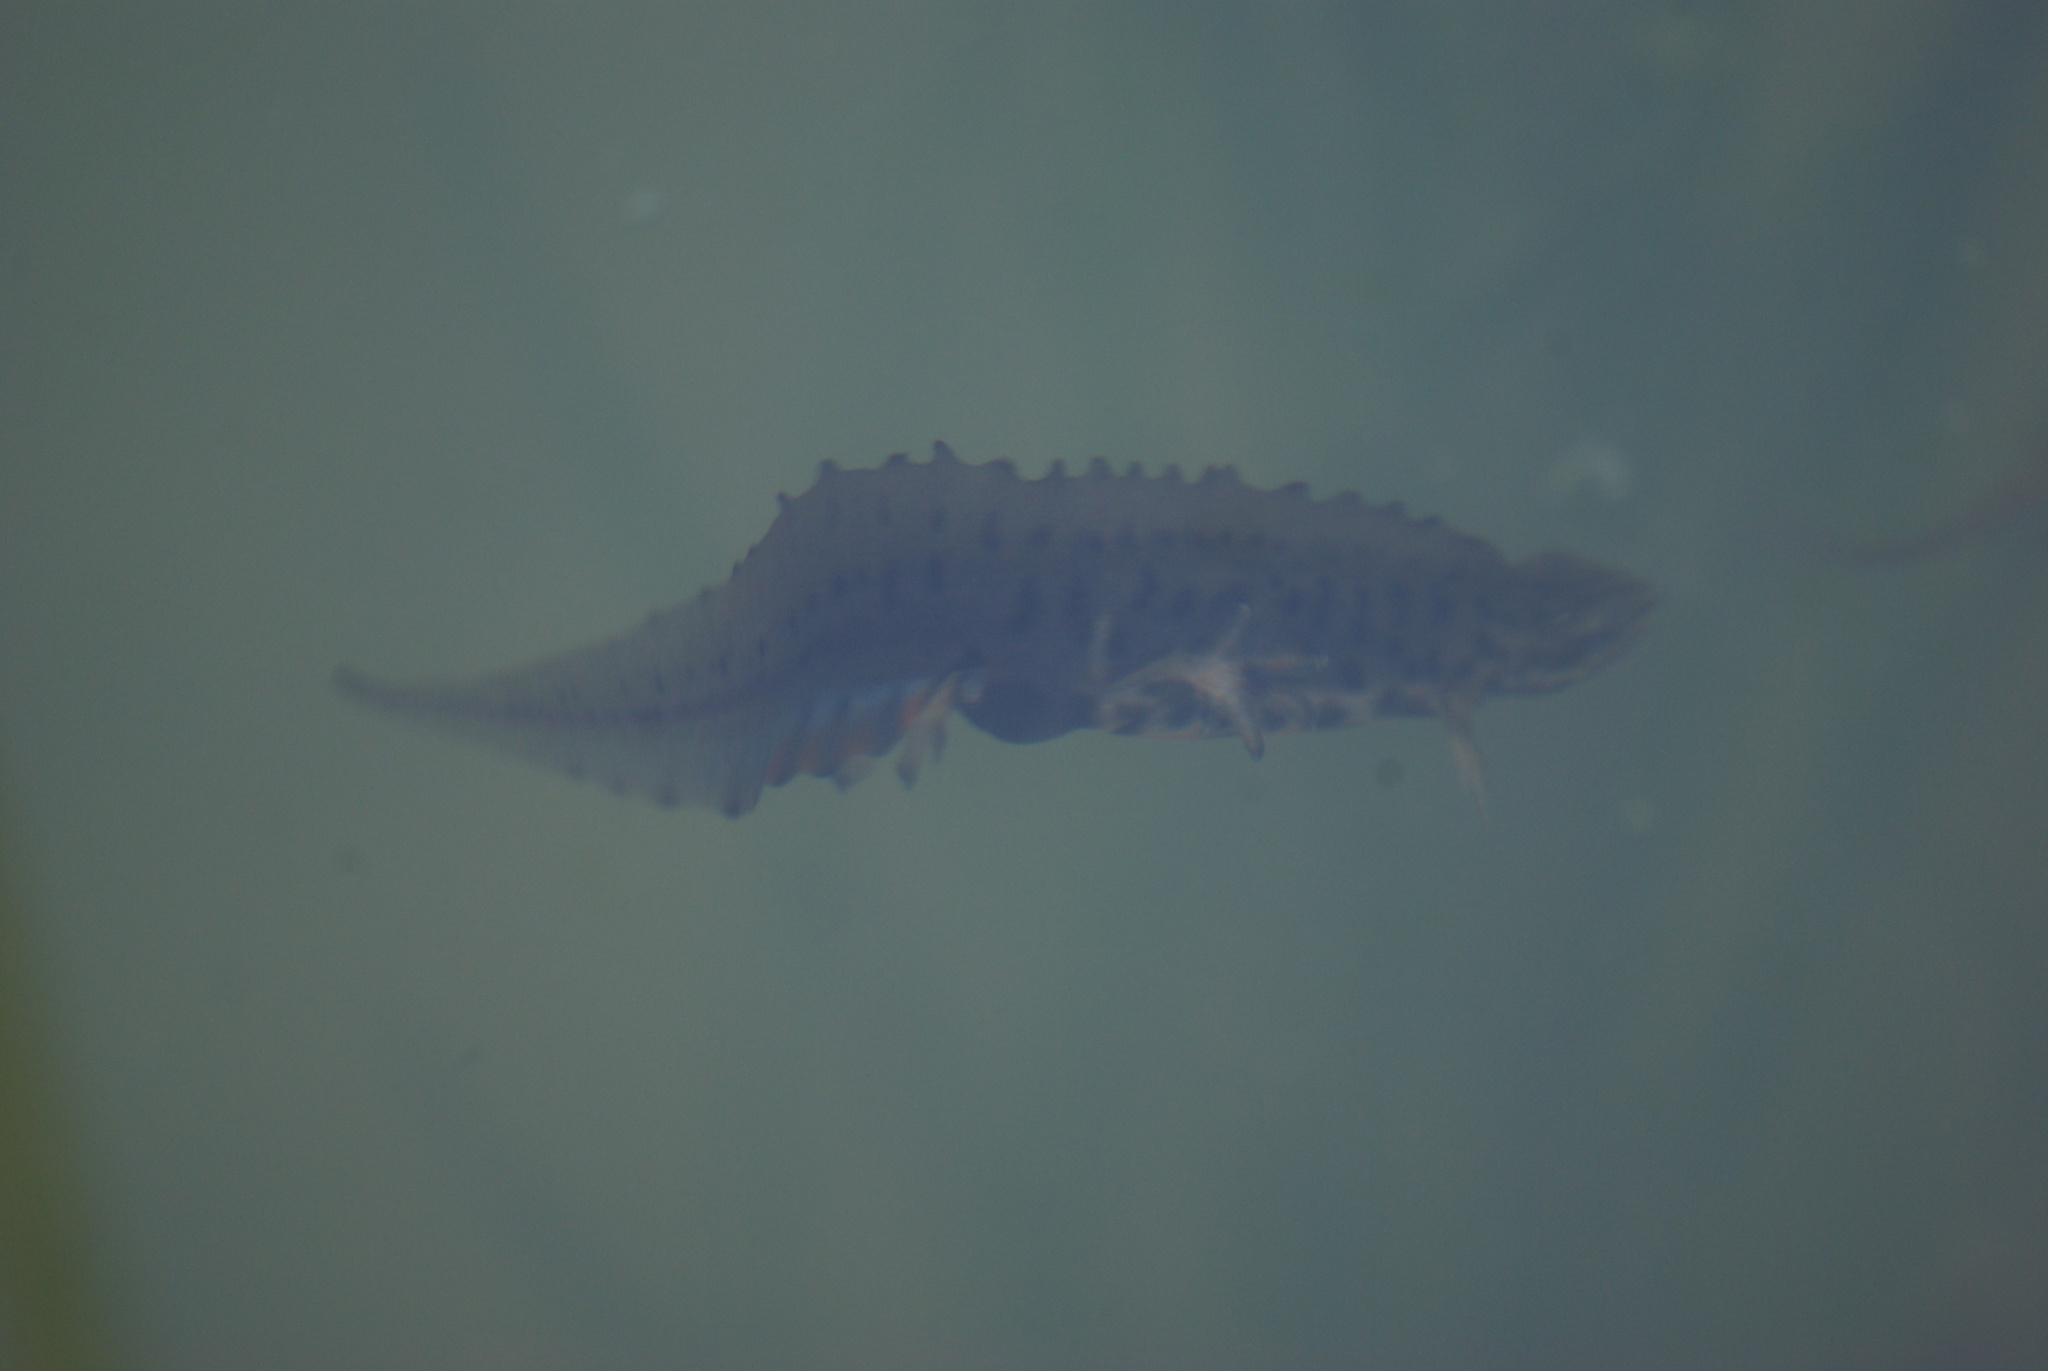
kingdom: Animalia
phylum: Chordata
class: Amphibia
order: Caudata
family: Salamandridae
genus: Lissotriton
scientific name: Lissotriton vulgaris
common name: Smooth newt
